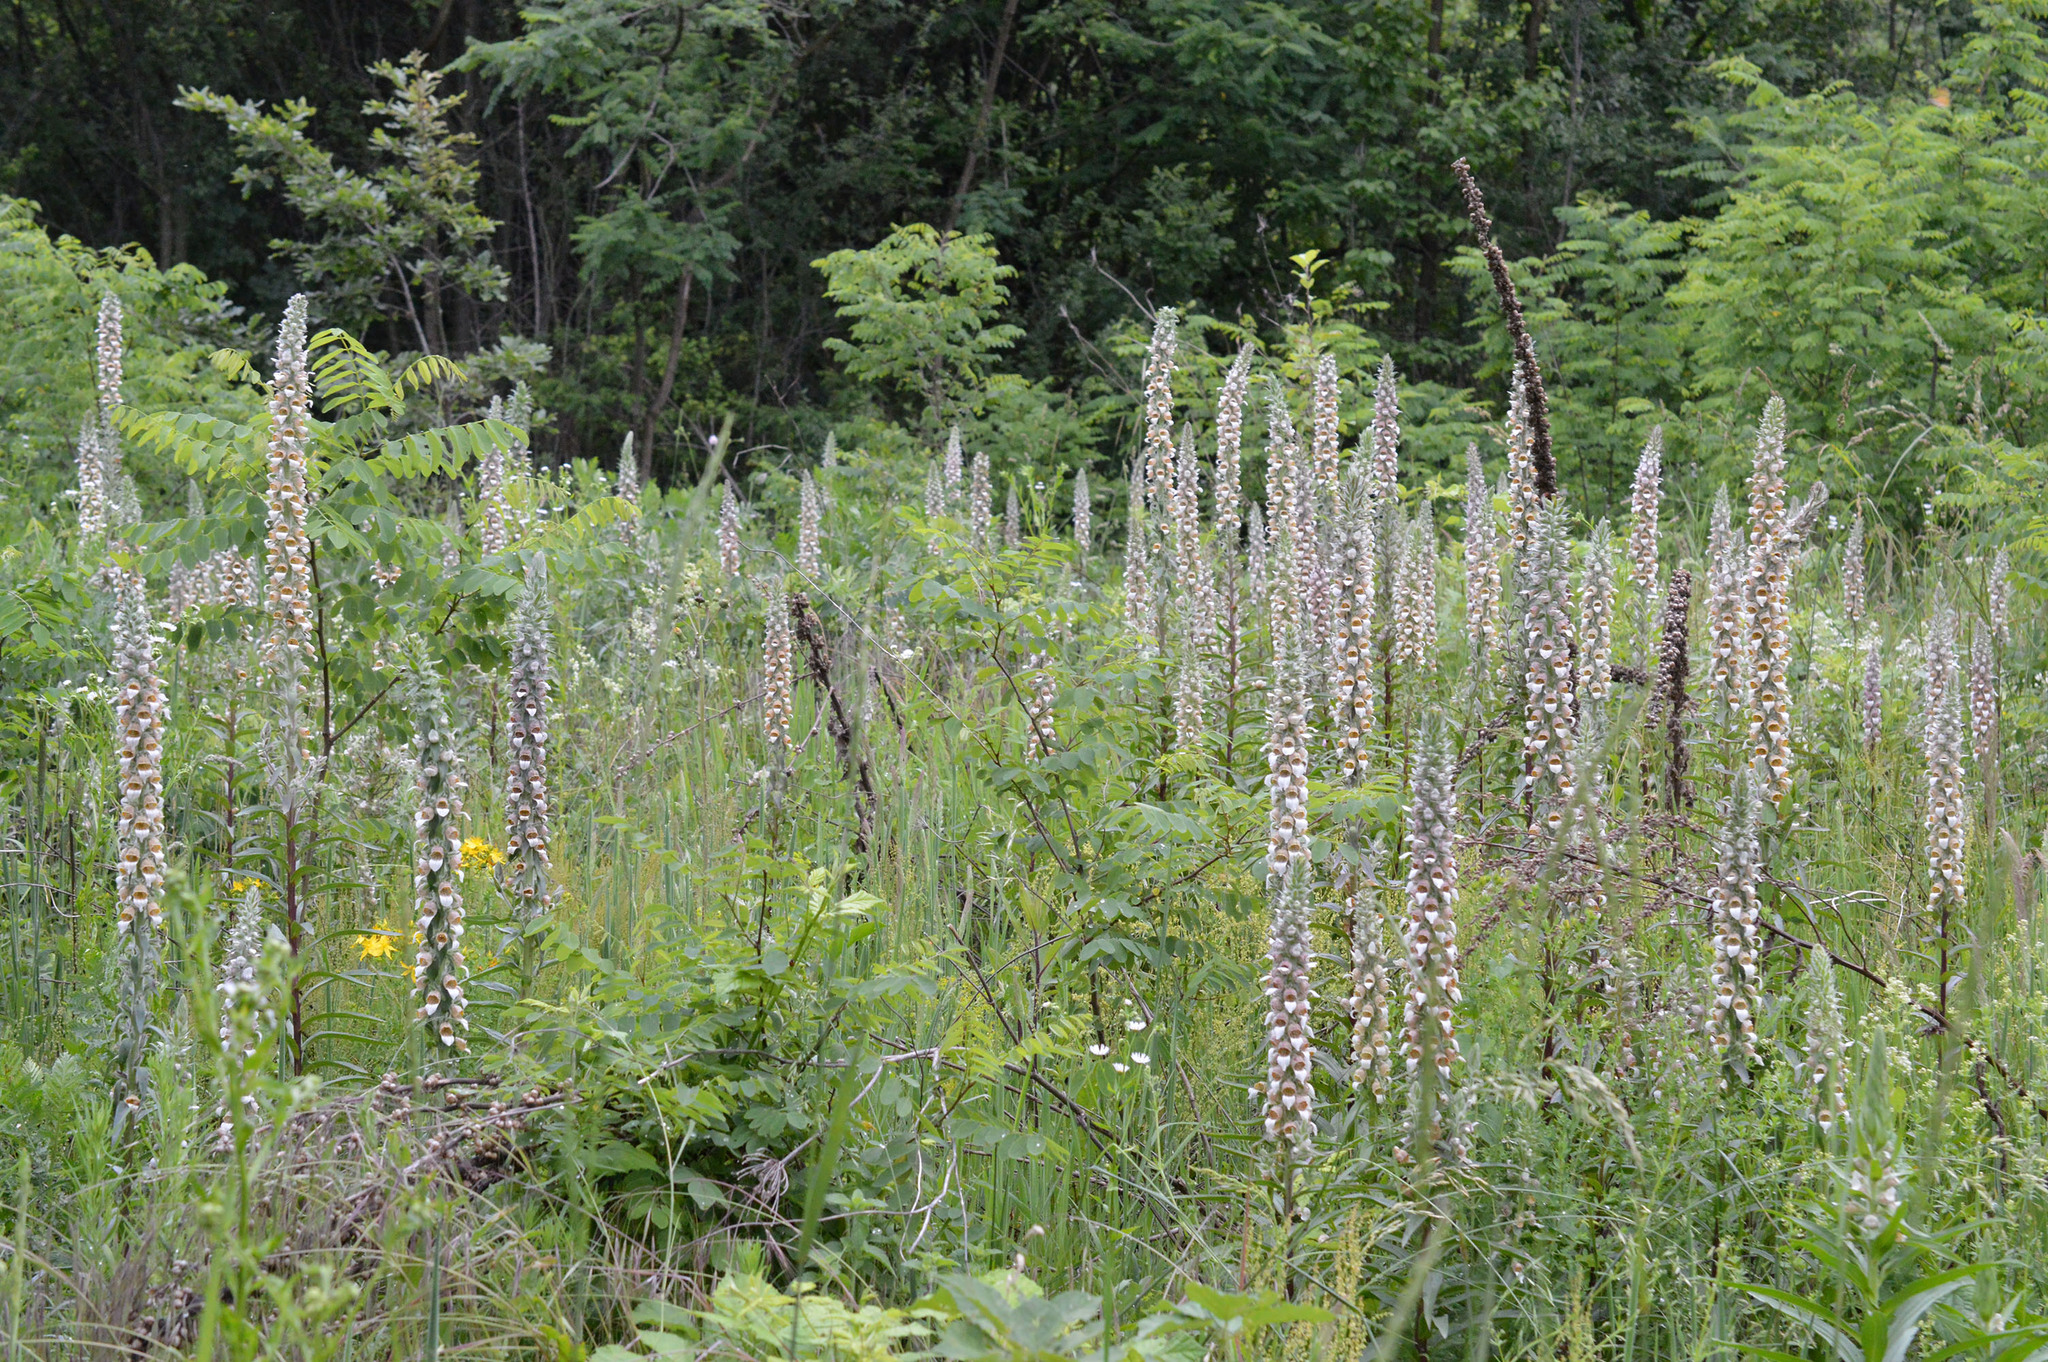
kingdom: Plantae
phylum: Tracheophyta
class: Magnoliopsida
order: Lamiales
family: Plantaginaceae
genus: Digitalis
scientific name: Digitalis lanata
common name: Grecian foxglove
